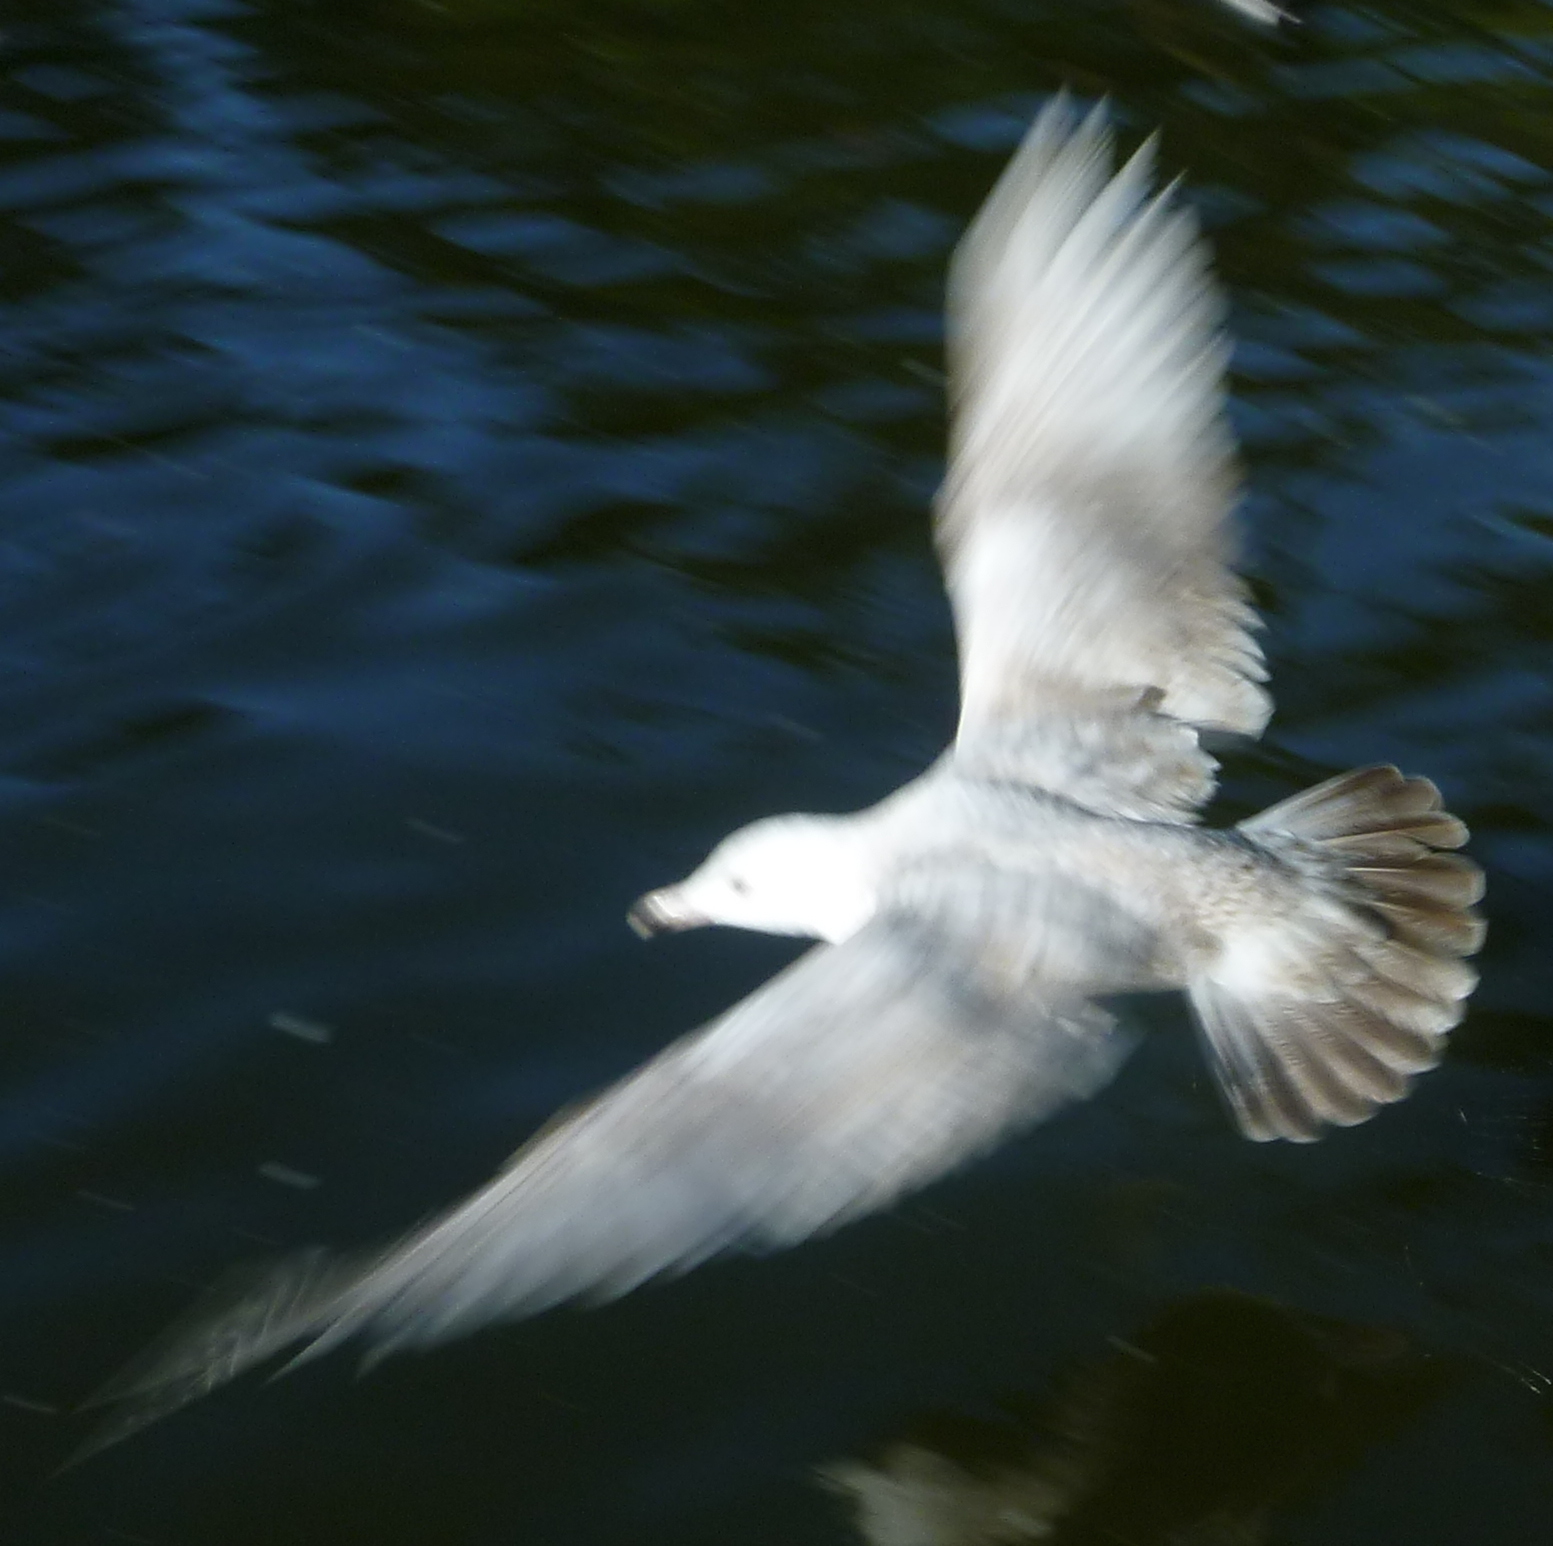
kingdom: Animalia
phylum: Chordata
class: Aves
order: Charadriiformes
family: Laridae
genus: Larus
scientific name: Larus
